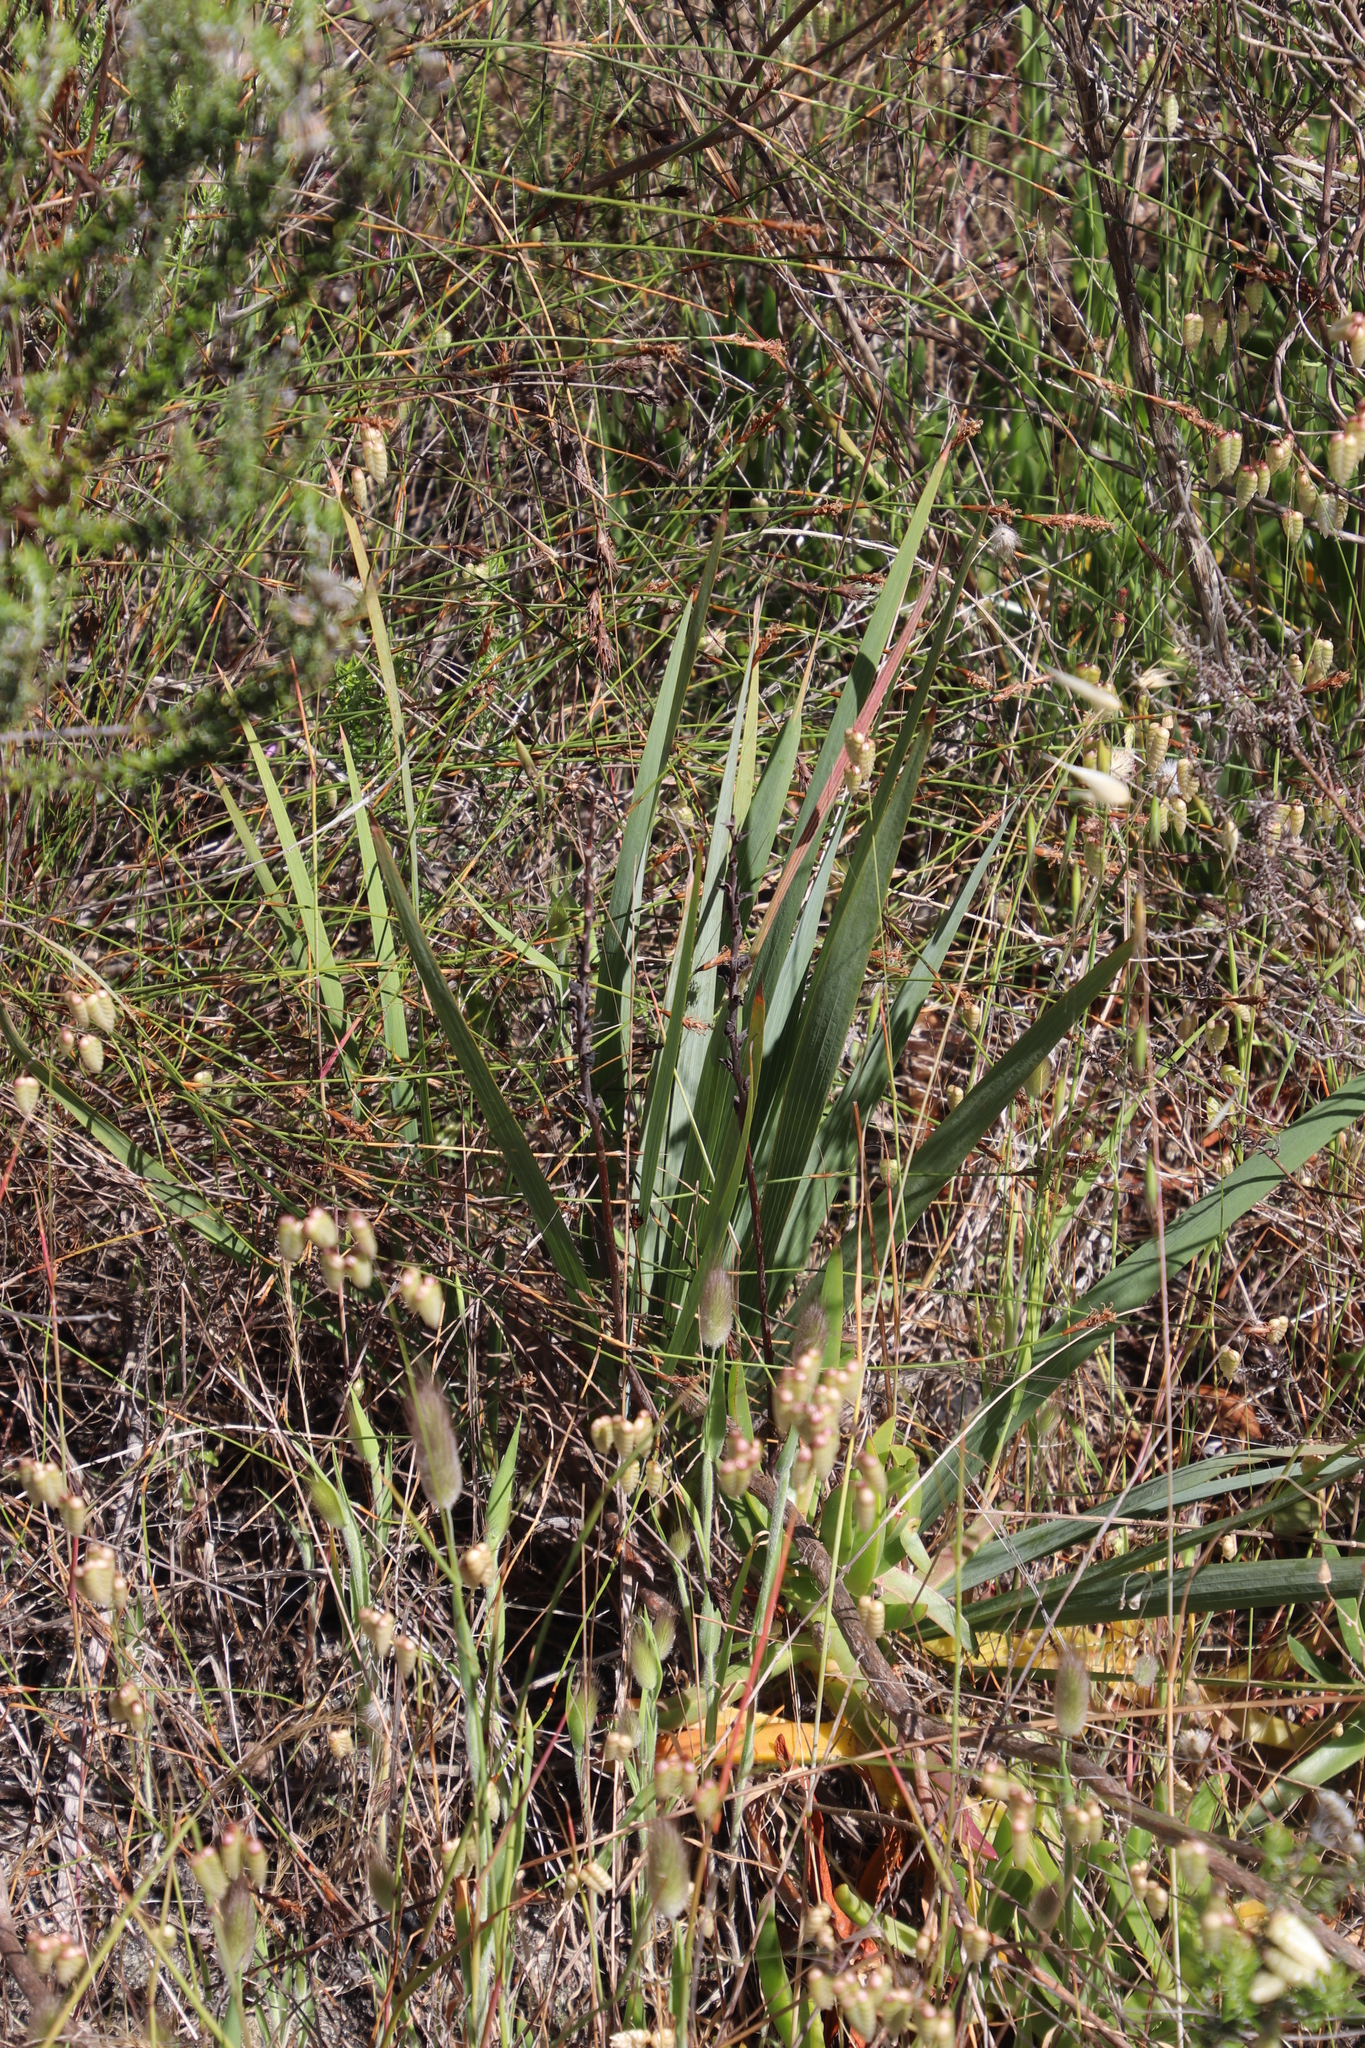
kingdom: Plantae
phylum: Tracheophyta
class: Liliopsida
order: Asparagales
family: Iridaceae
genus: Tritoniopsis
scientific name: Tritoniopsis antholyza
